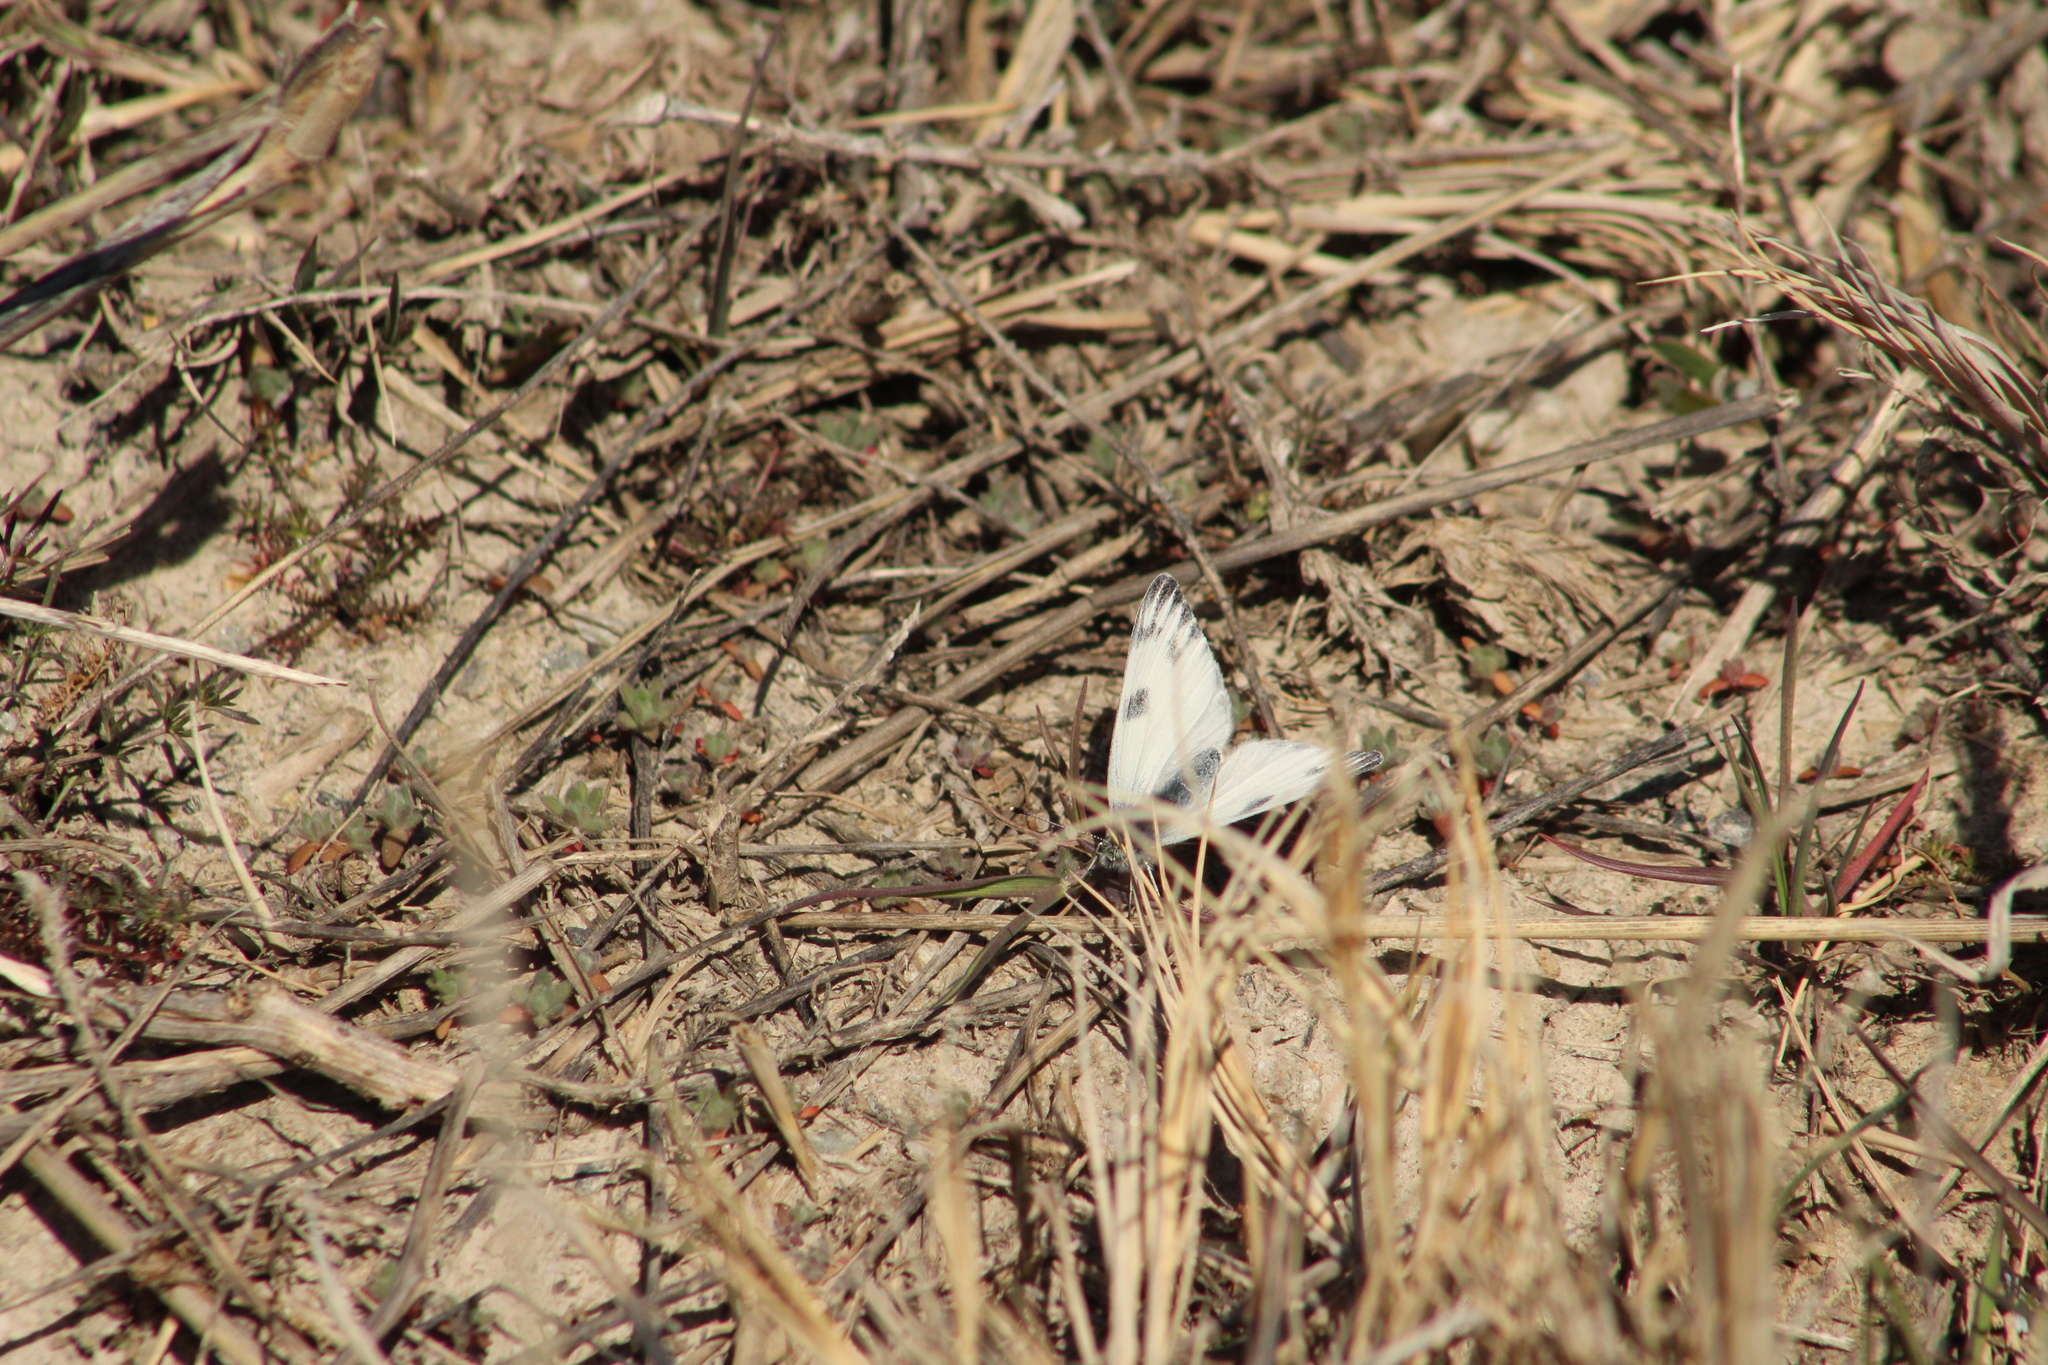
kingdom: Animalia
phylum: Arthropoda
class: Insecta
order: Lepidoptera
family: Pieridae
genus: Pontia
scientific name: Pontia protodice
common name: Checkered white
